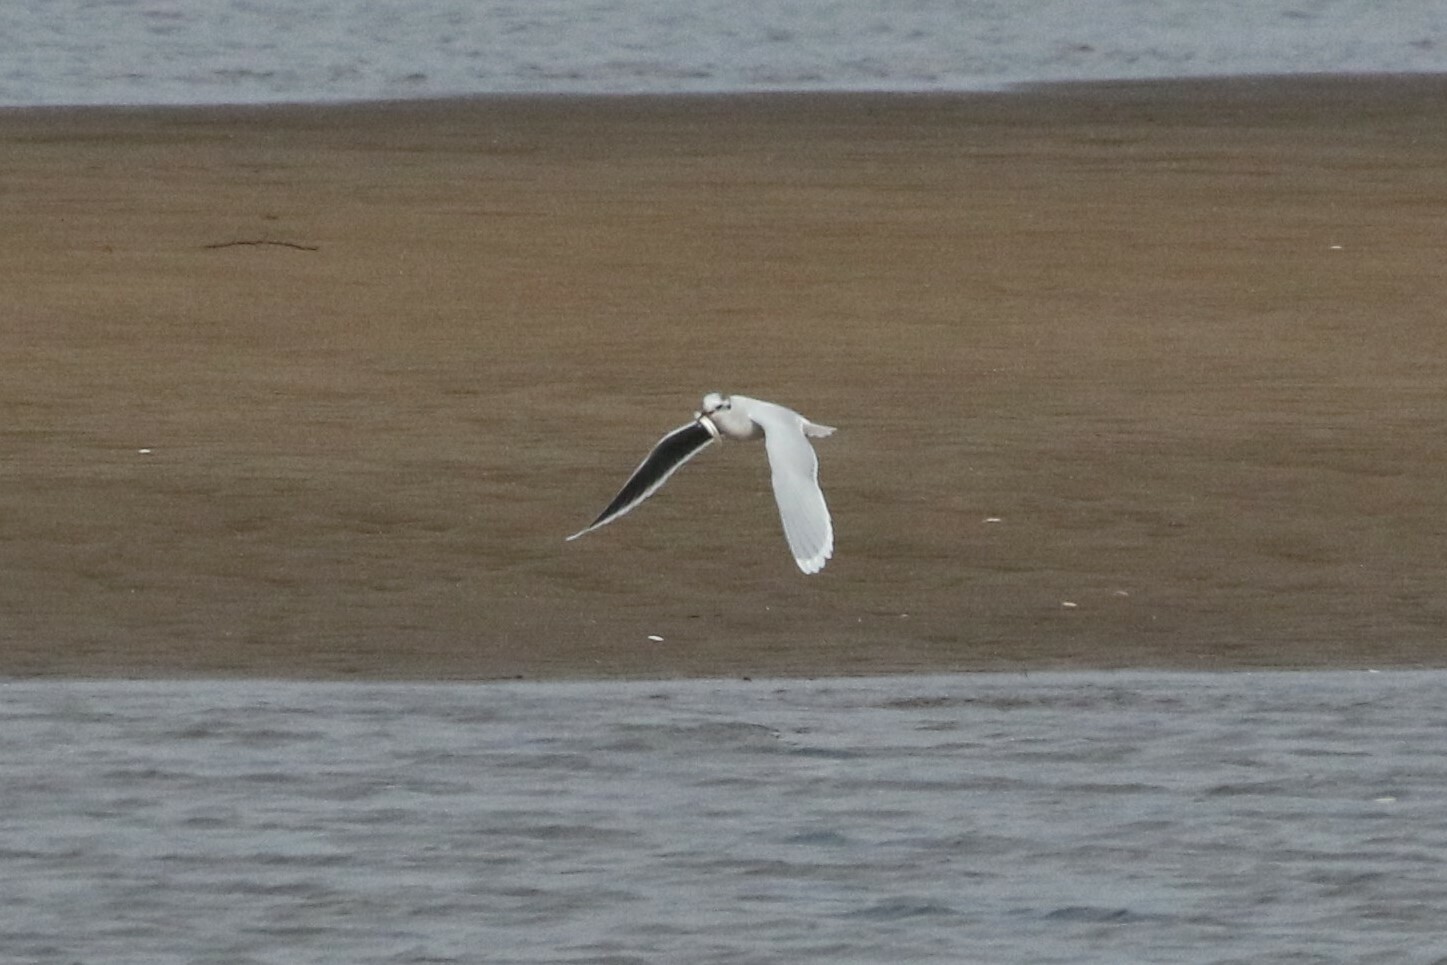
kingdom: Animalia
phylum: Chordata
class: Aves
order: Charadriiformes
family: Laridae
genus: Hydrocoloeus
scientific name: Hydrocoloeus minutus
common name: Little gull
